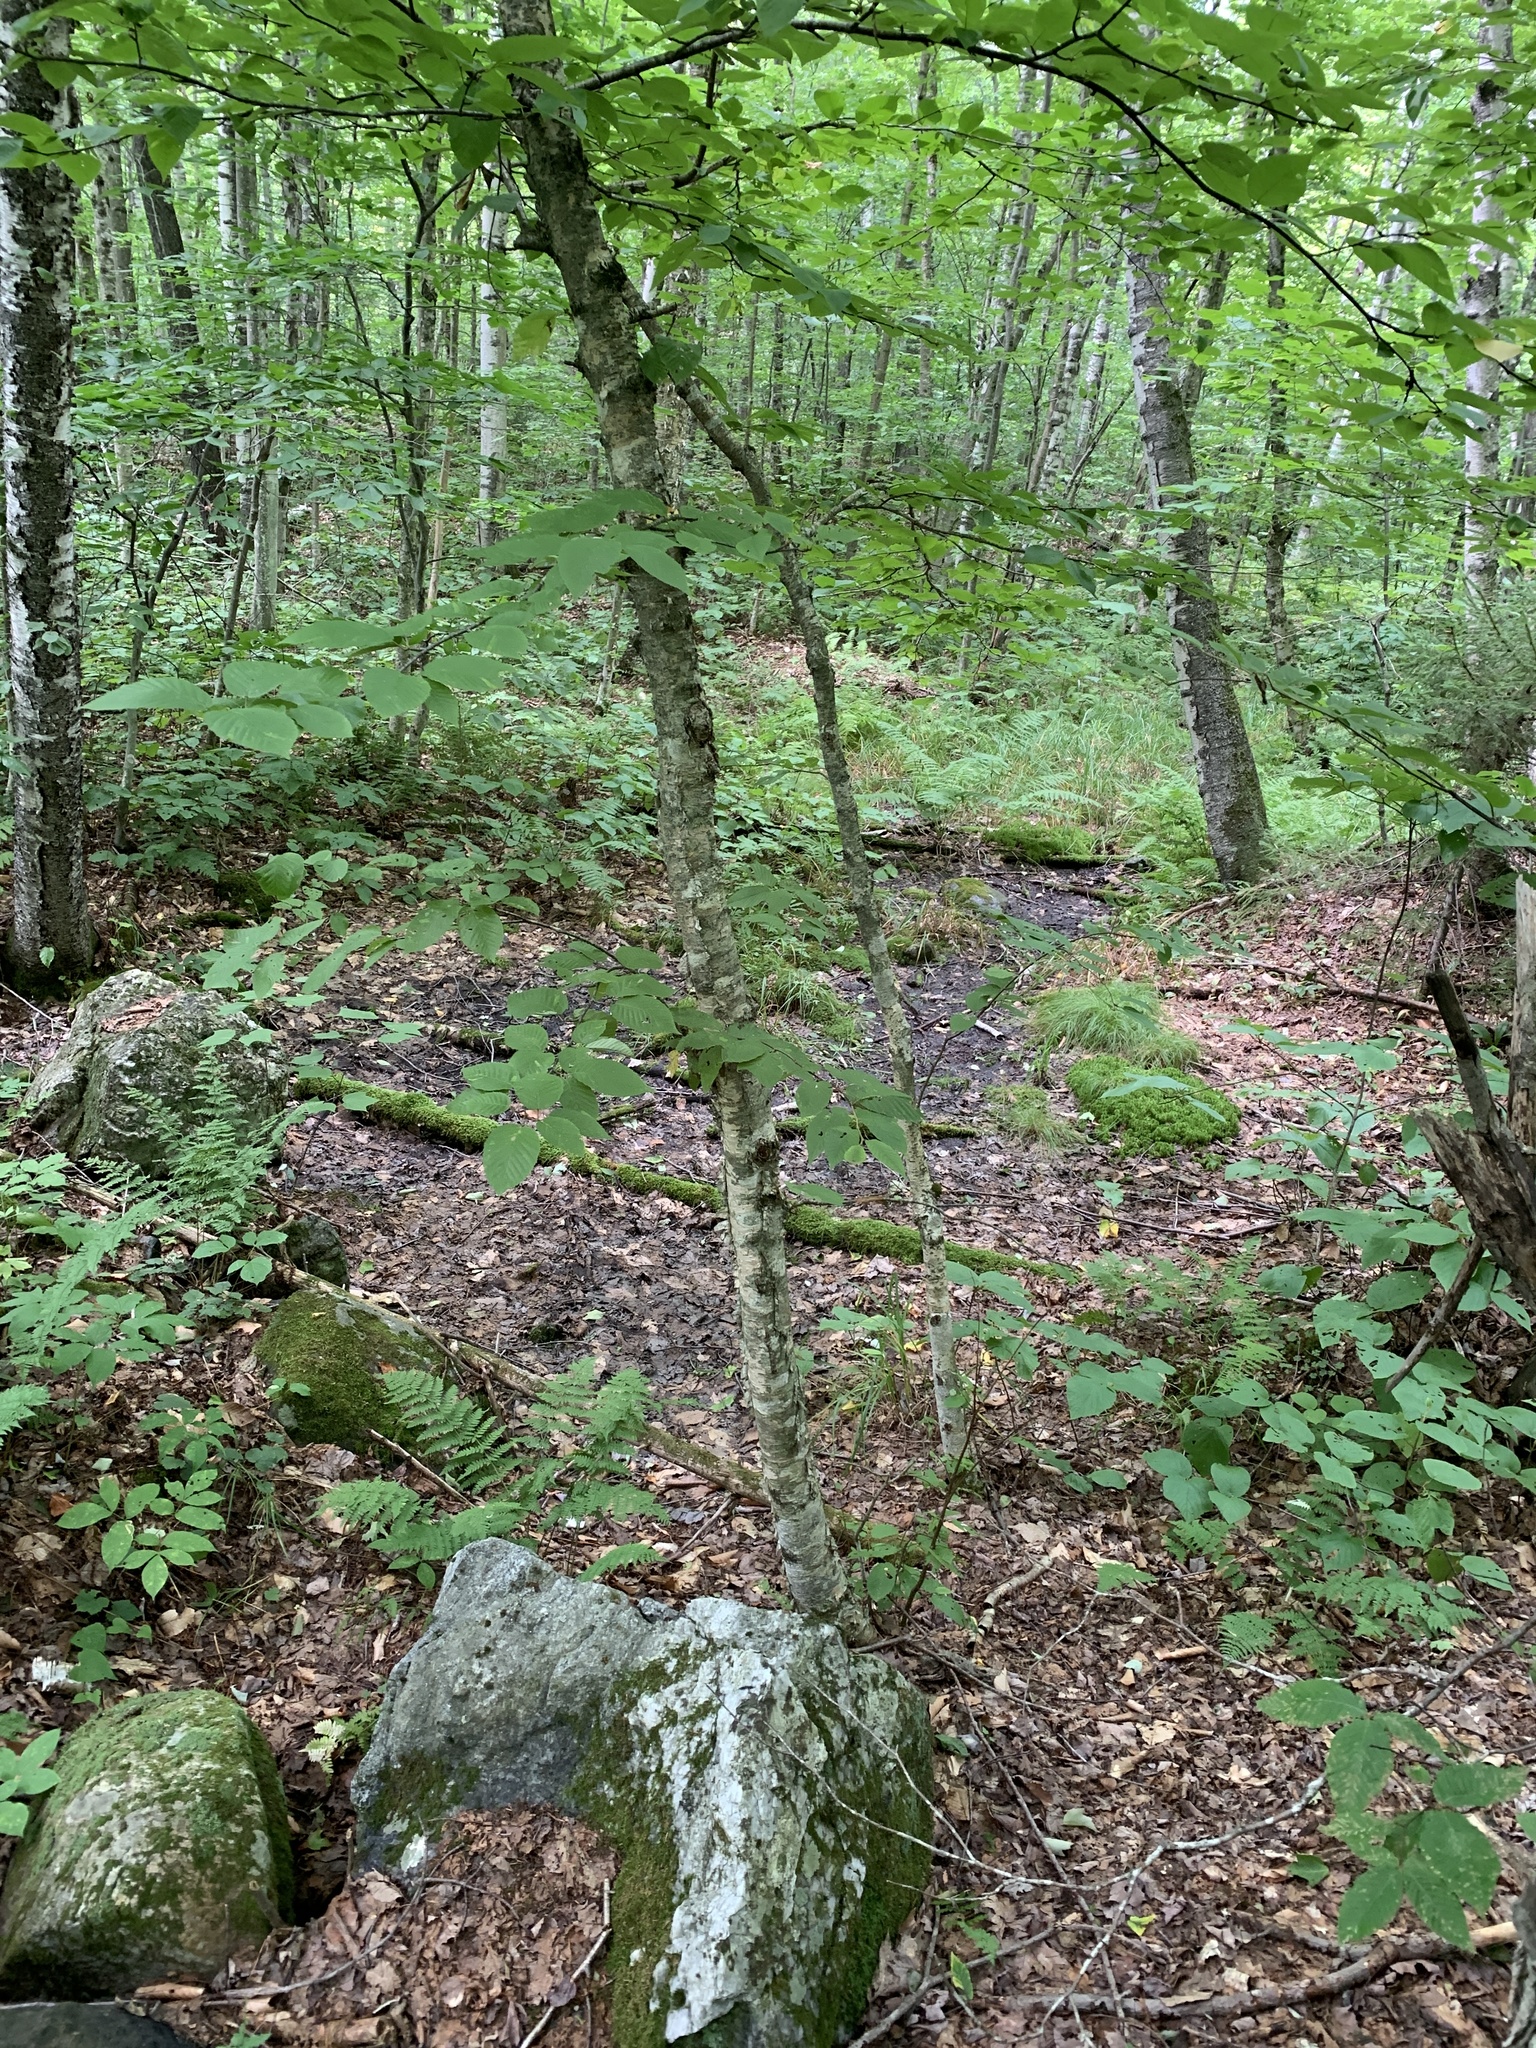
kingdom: Plantae
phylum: Tracheophyta
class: Magnoliopsida
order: Fagales
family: Betulaceae
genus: Betula
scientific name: Betula alleghaniensis
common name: Yellow birch
